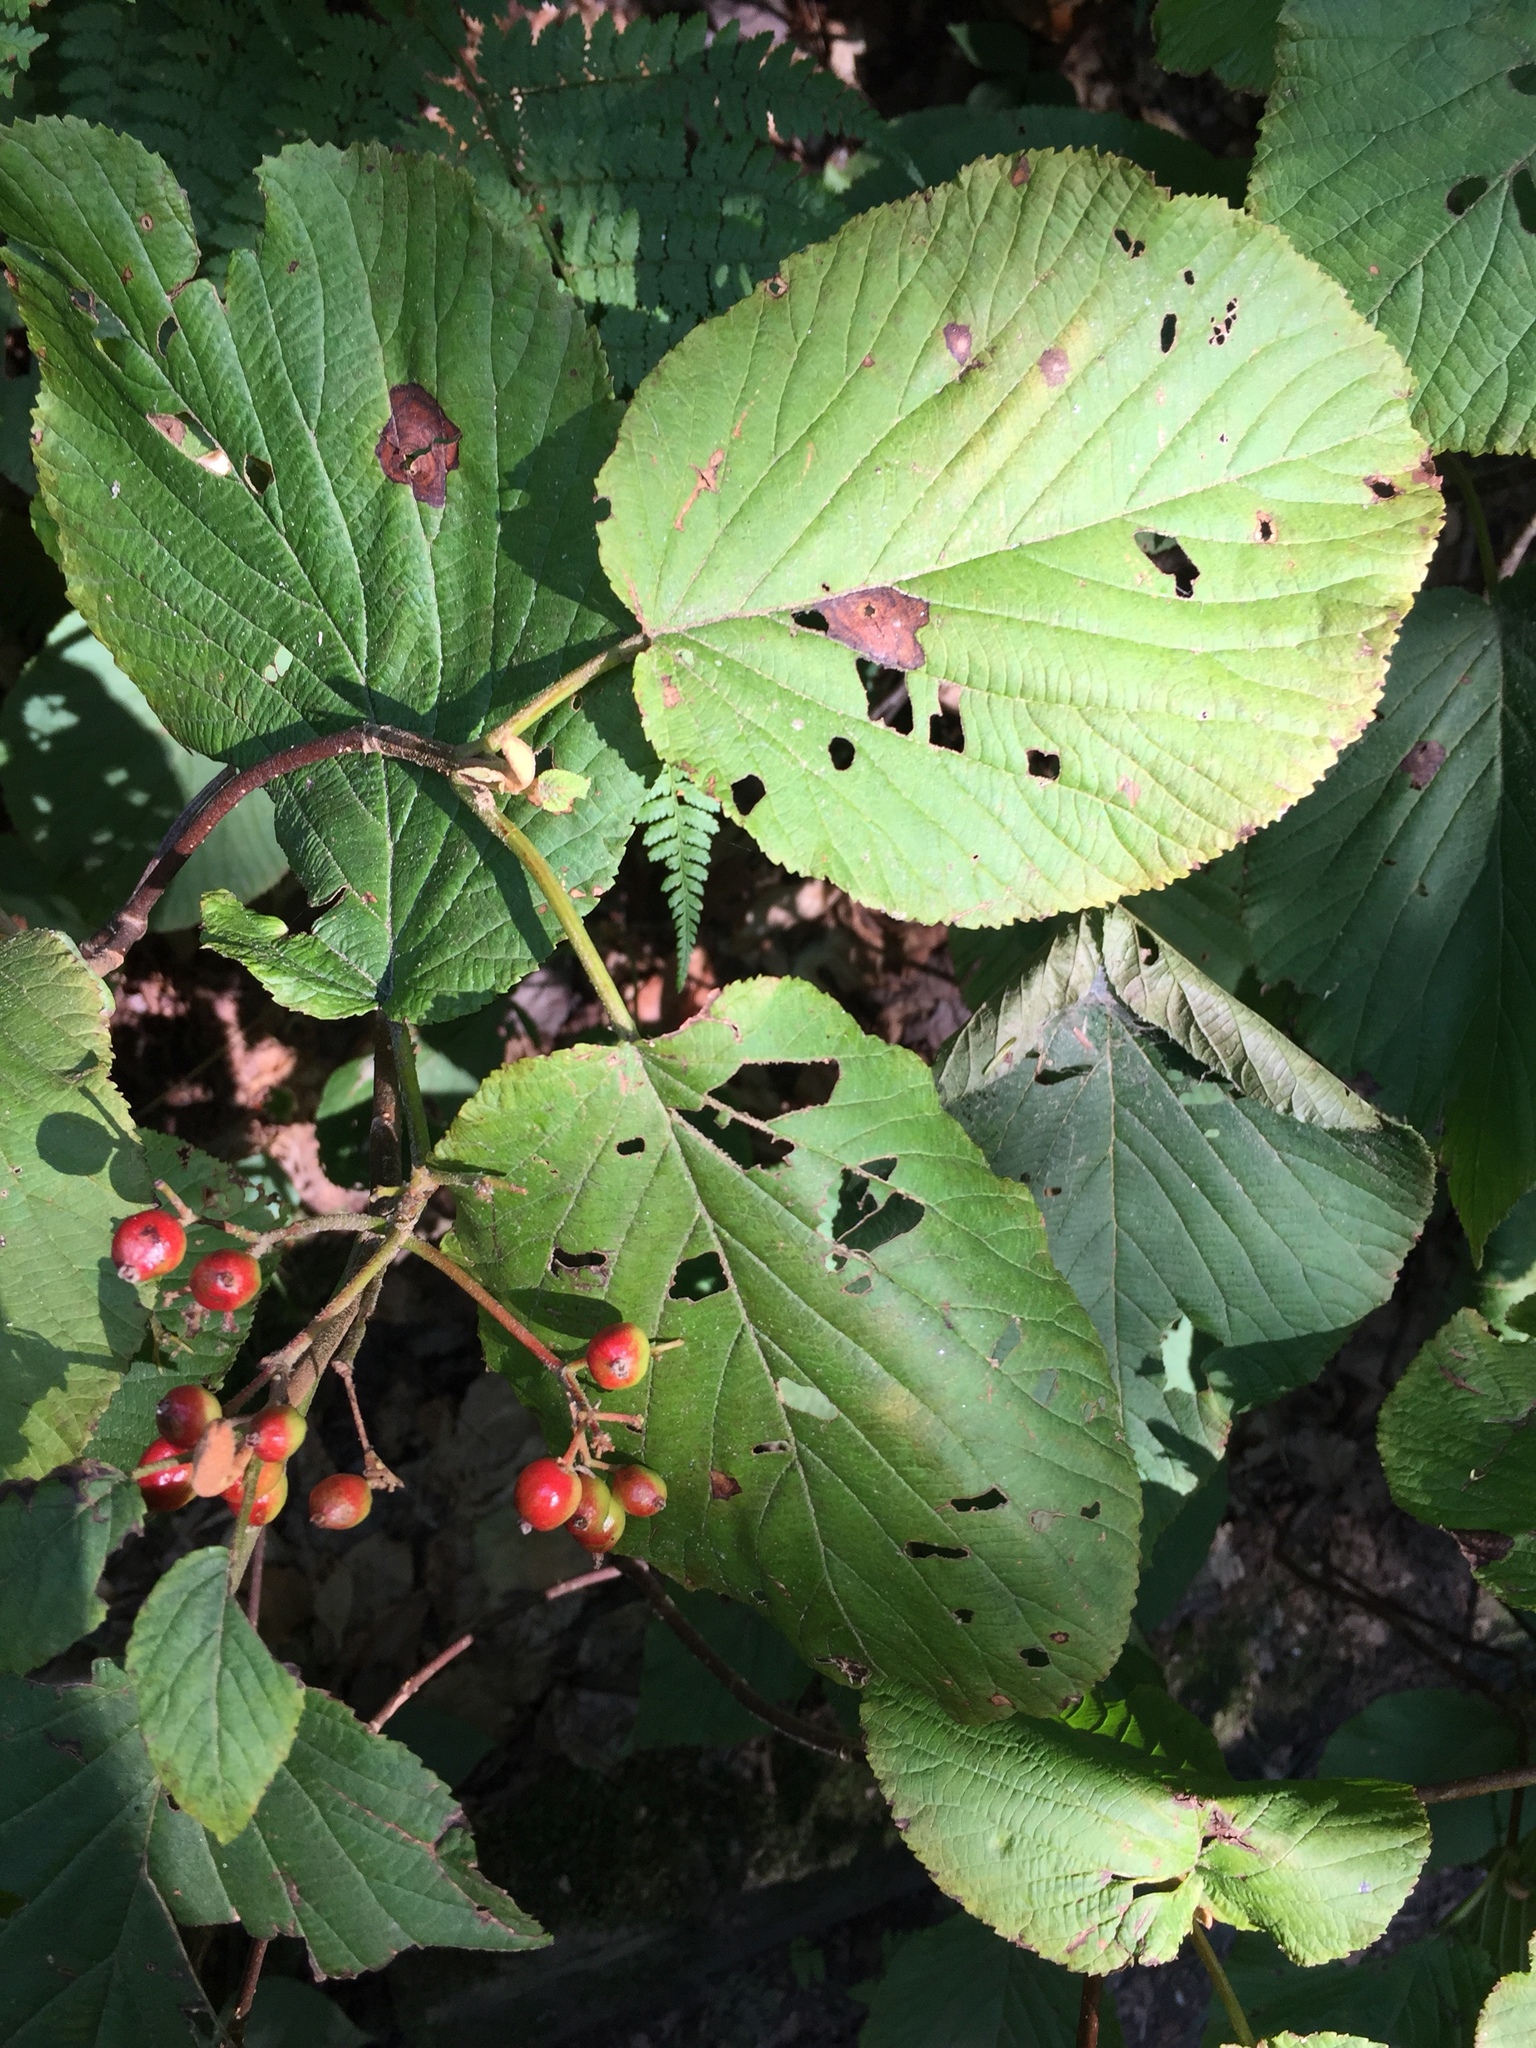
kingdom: Plantae
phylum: Tracheophyta
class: Magnoliopsida
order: Dipsacales
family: Viburnaceae
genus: Viburnum
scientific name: Viburnum lantanoides
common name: Hobblebush
